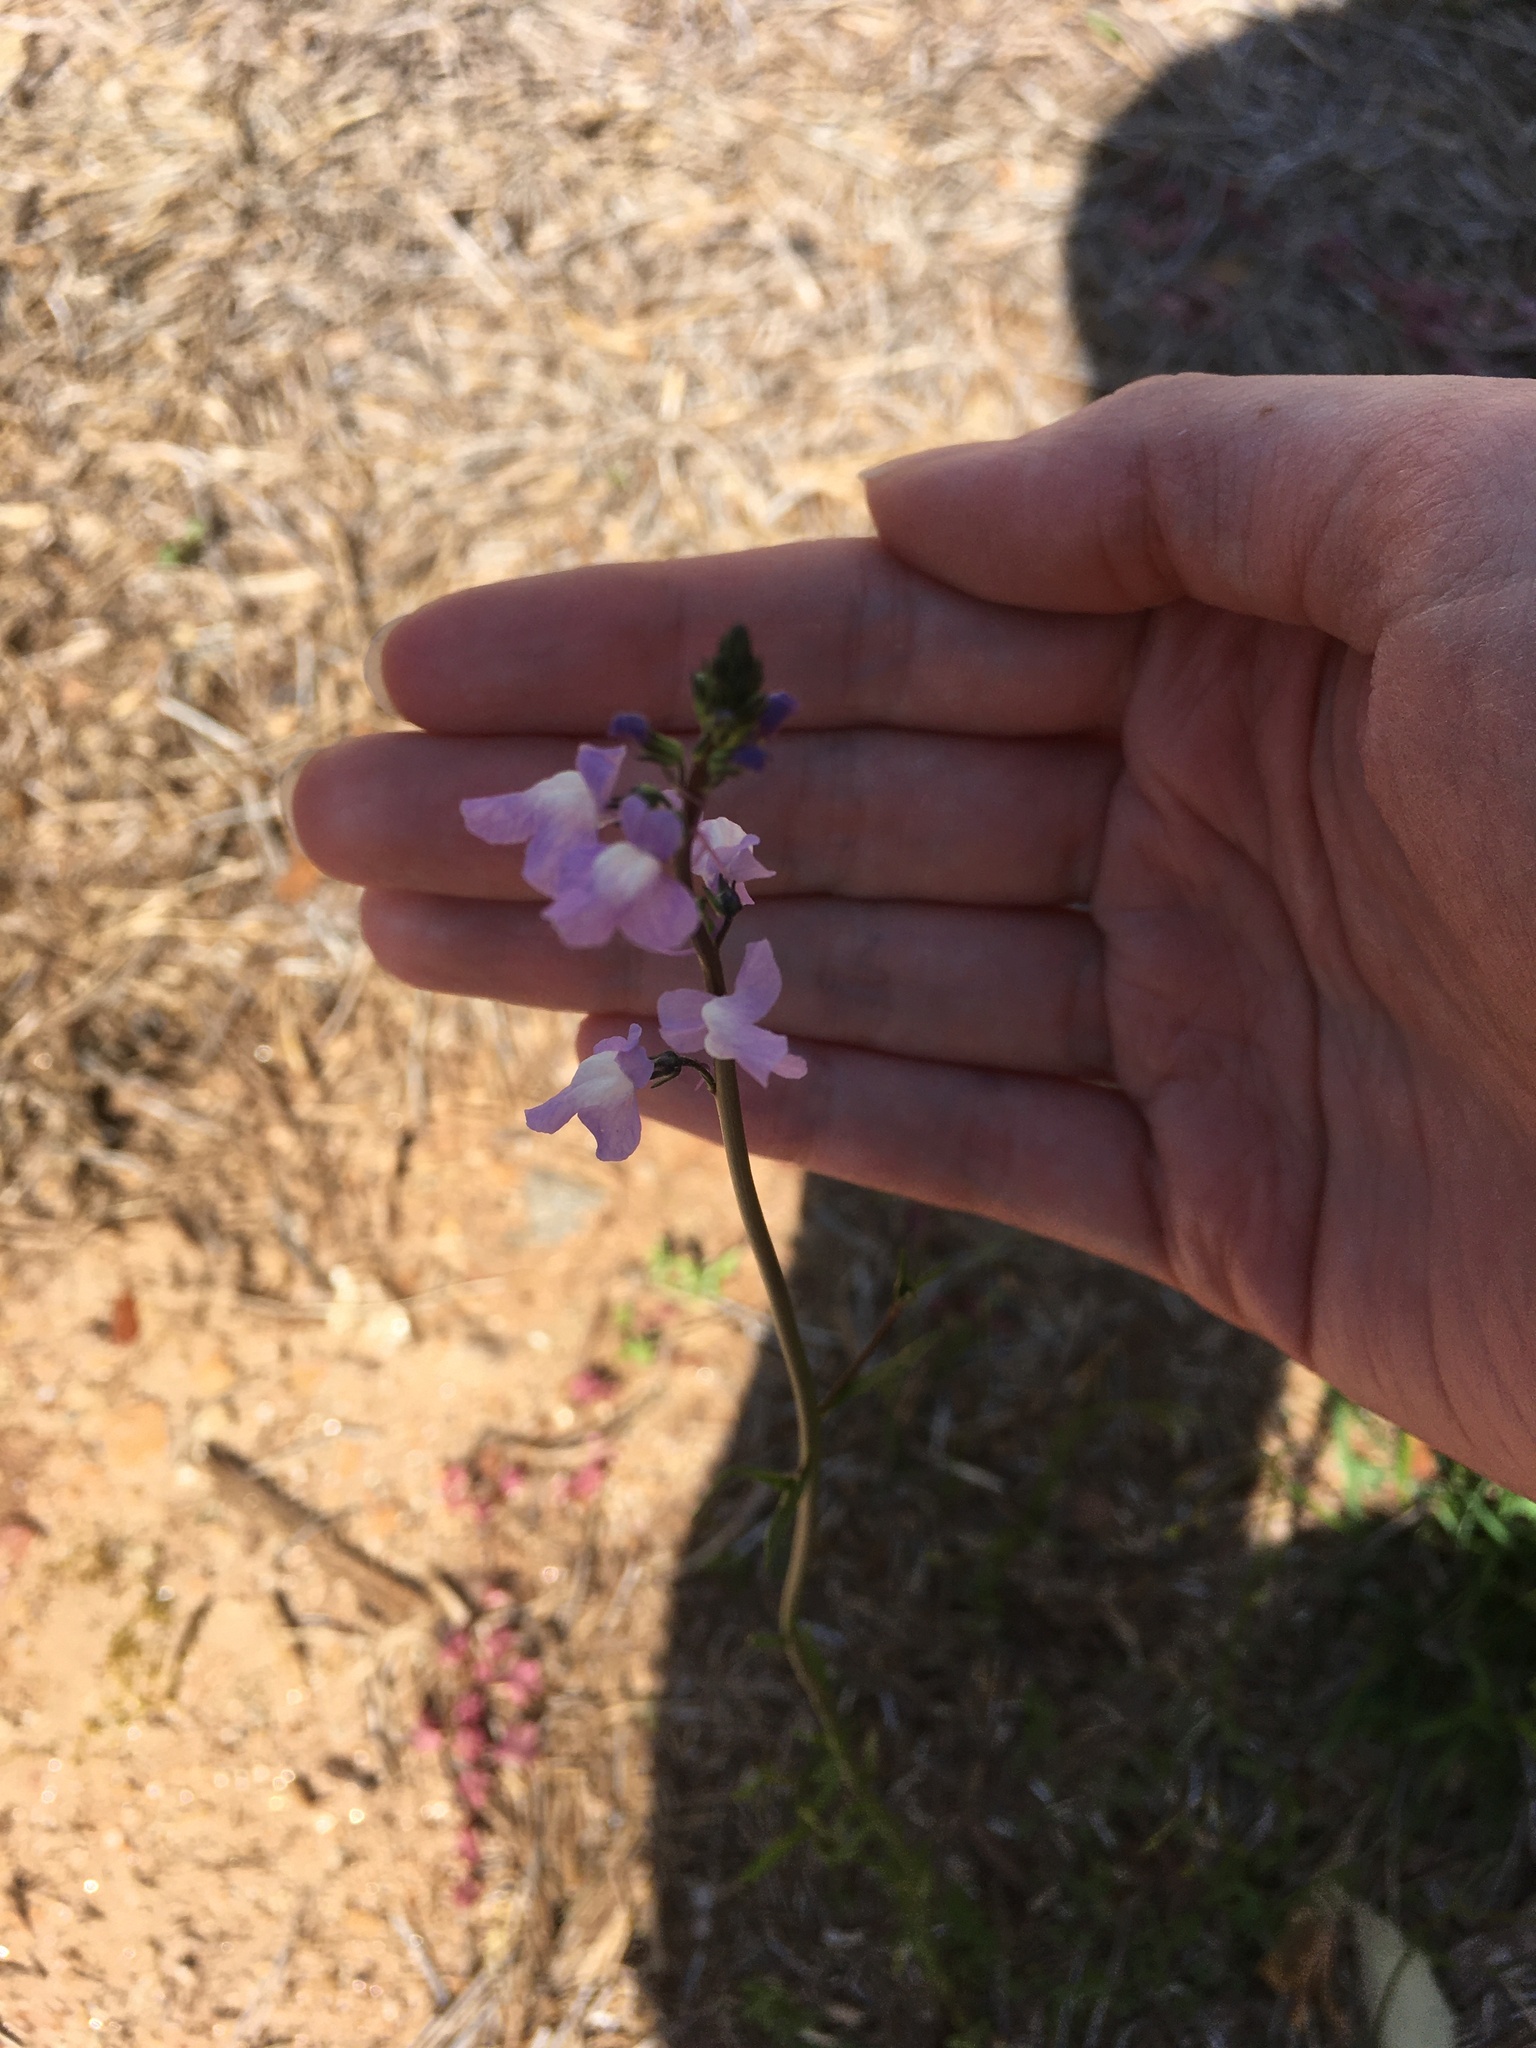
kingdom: Plantae
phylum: Tracheophyta
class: Magnoliopsida
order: Lamiales
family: Plantaginaceae
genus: Nuttallanthus
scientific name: Nuttallanthus canadensis
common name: Blue toadflax
